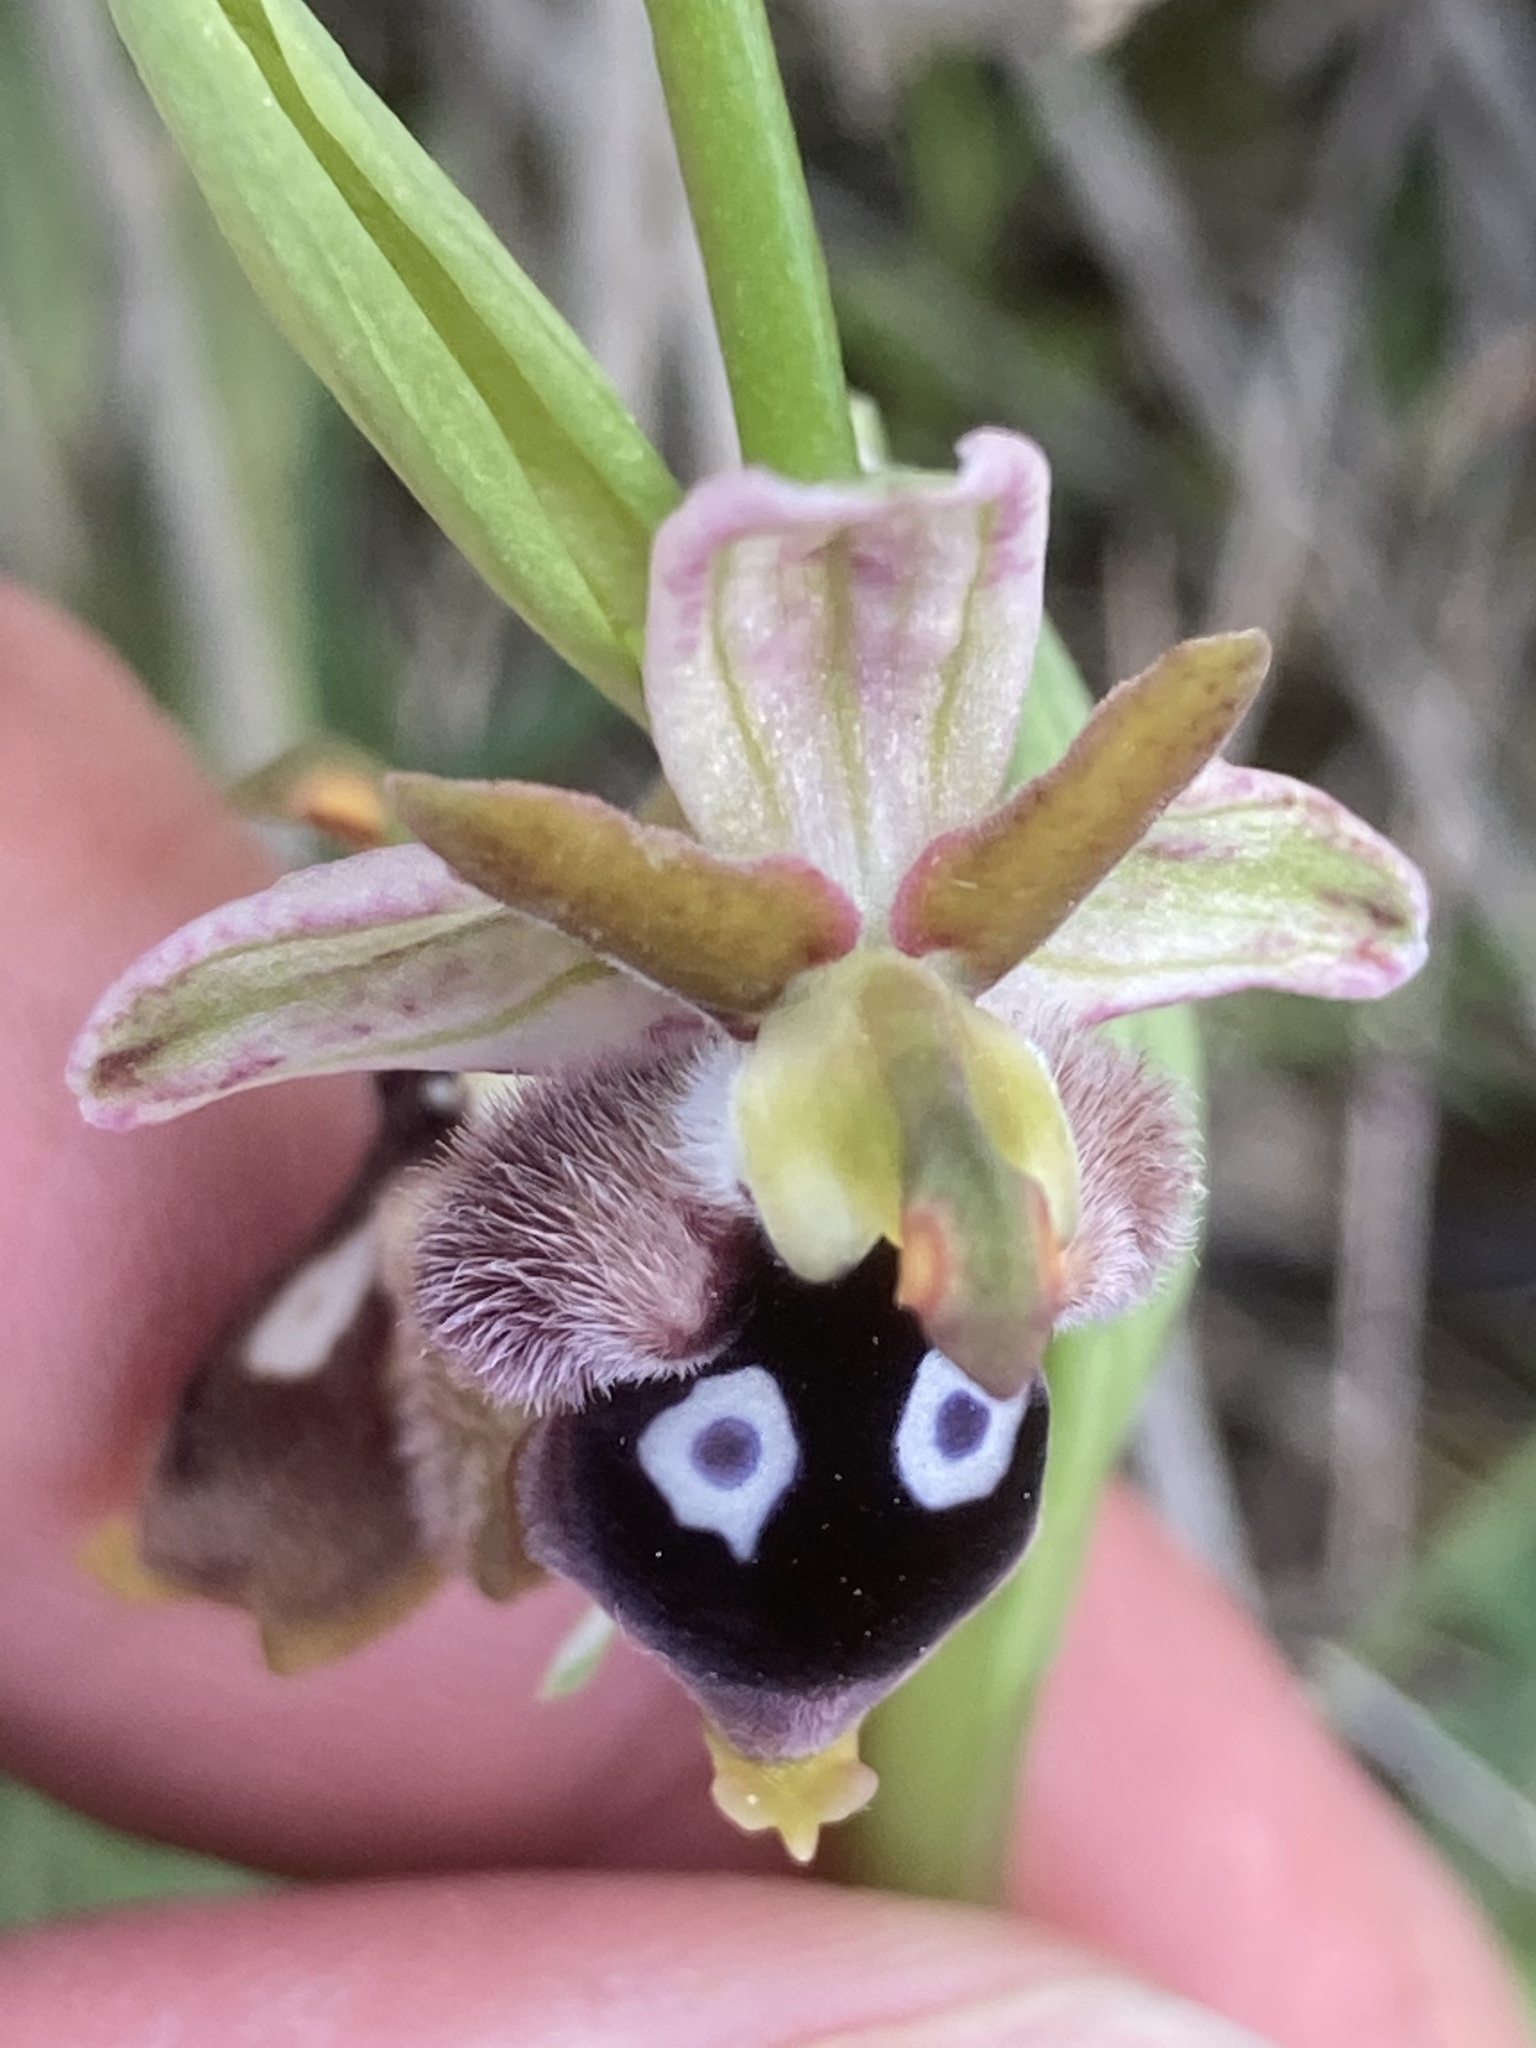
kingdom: Plantae
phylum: Tracheophyta
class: Liliopsida
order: Asparagales
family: Orchidaceae
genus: Ophrys
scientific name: Ophrys reinholdii
